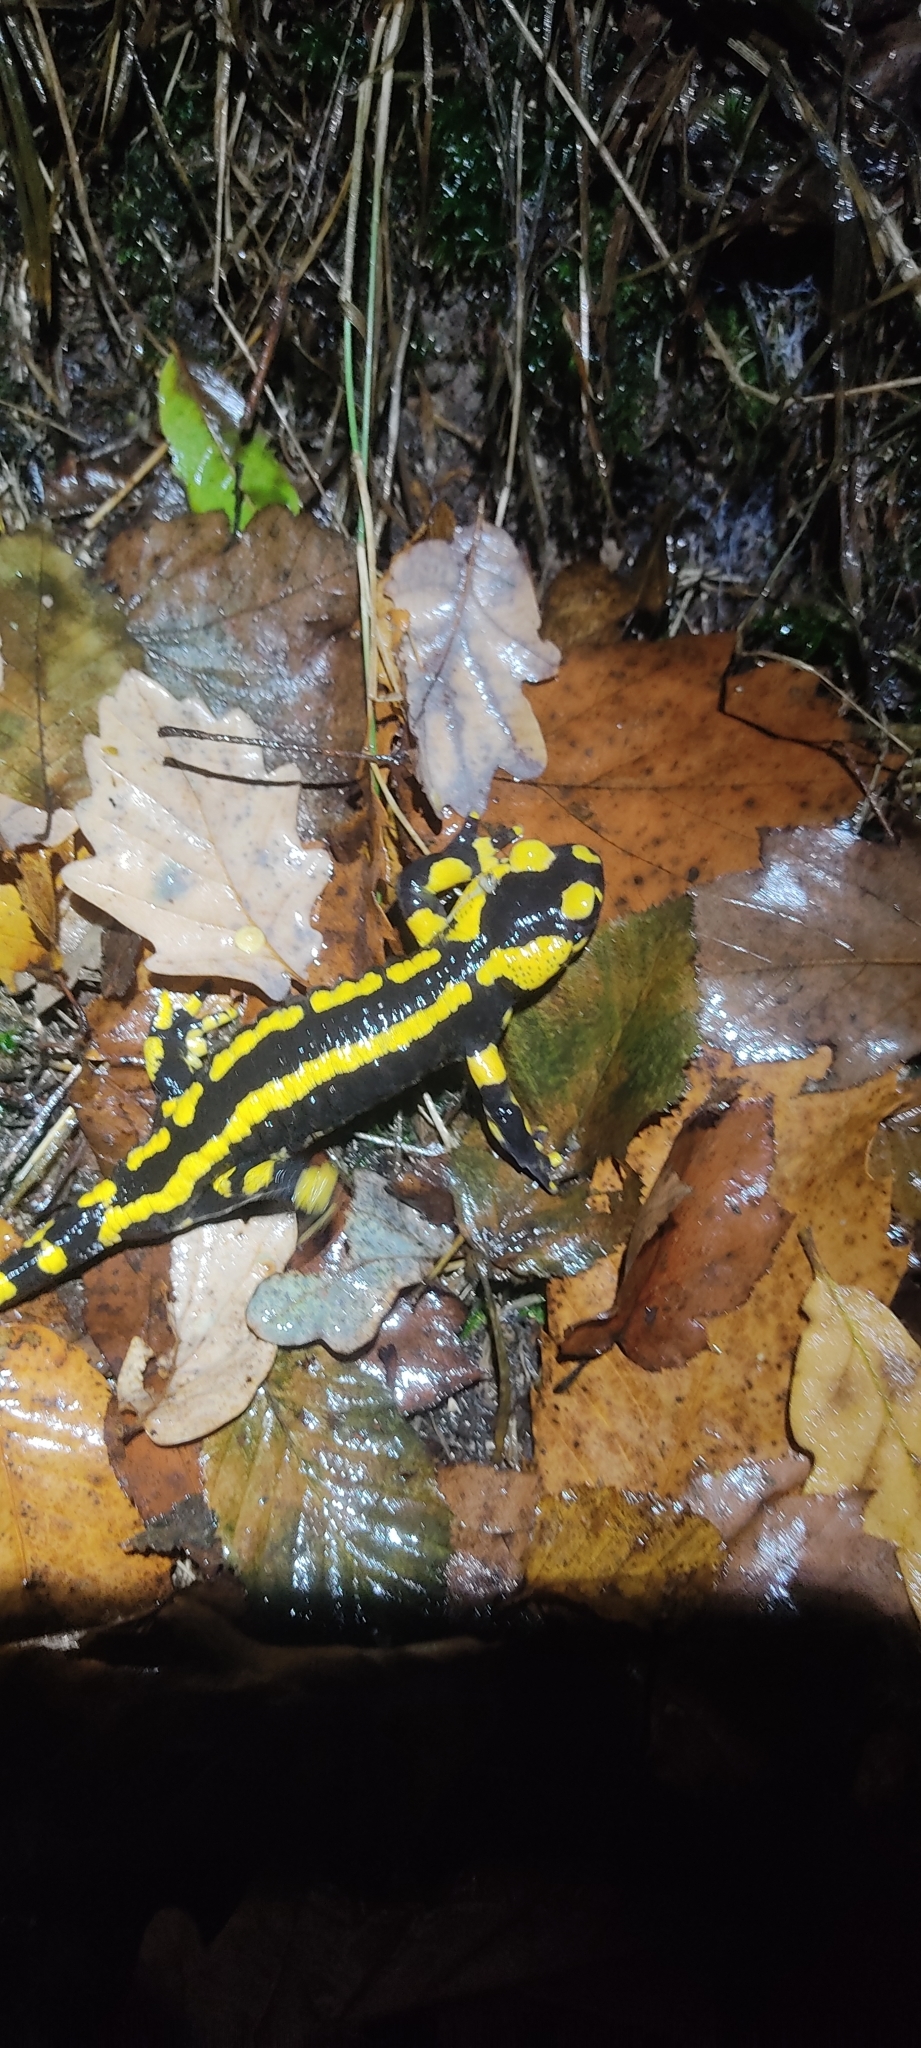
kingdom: Animalia
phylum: Chordata
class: Amphibia
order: Caudata
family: Salamandridae
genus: Salamandra
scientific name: Salamandra salamandra
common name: Fire salamander
